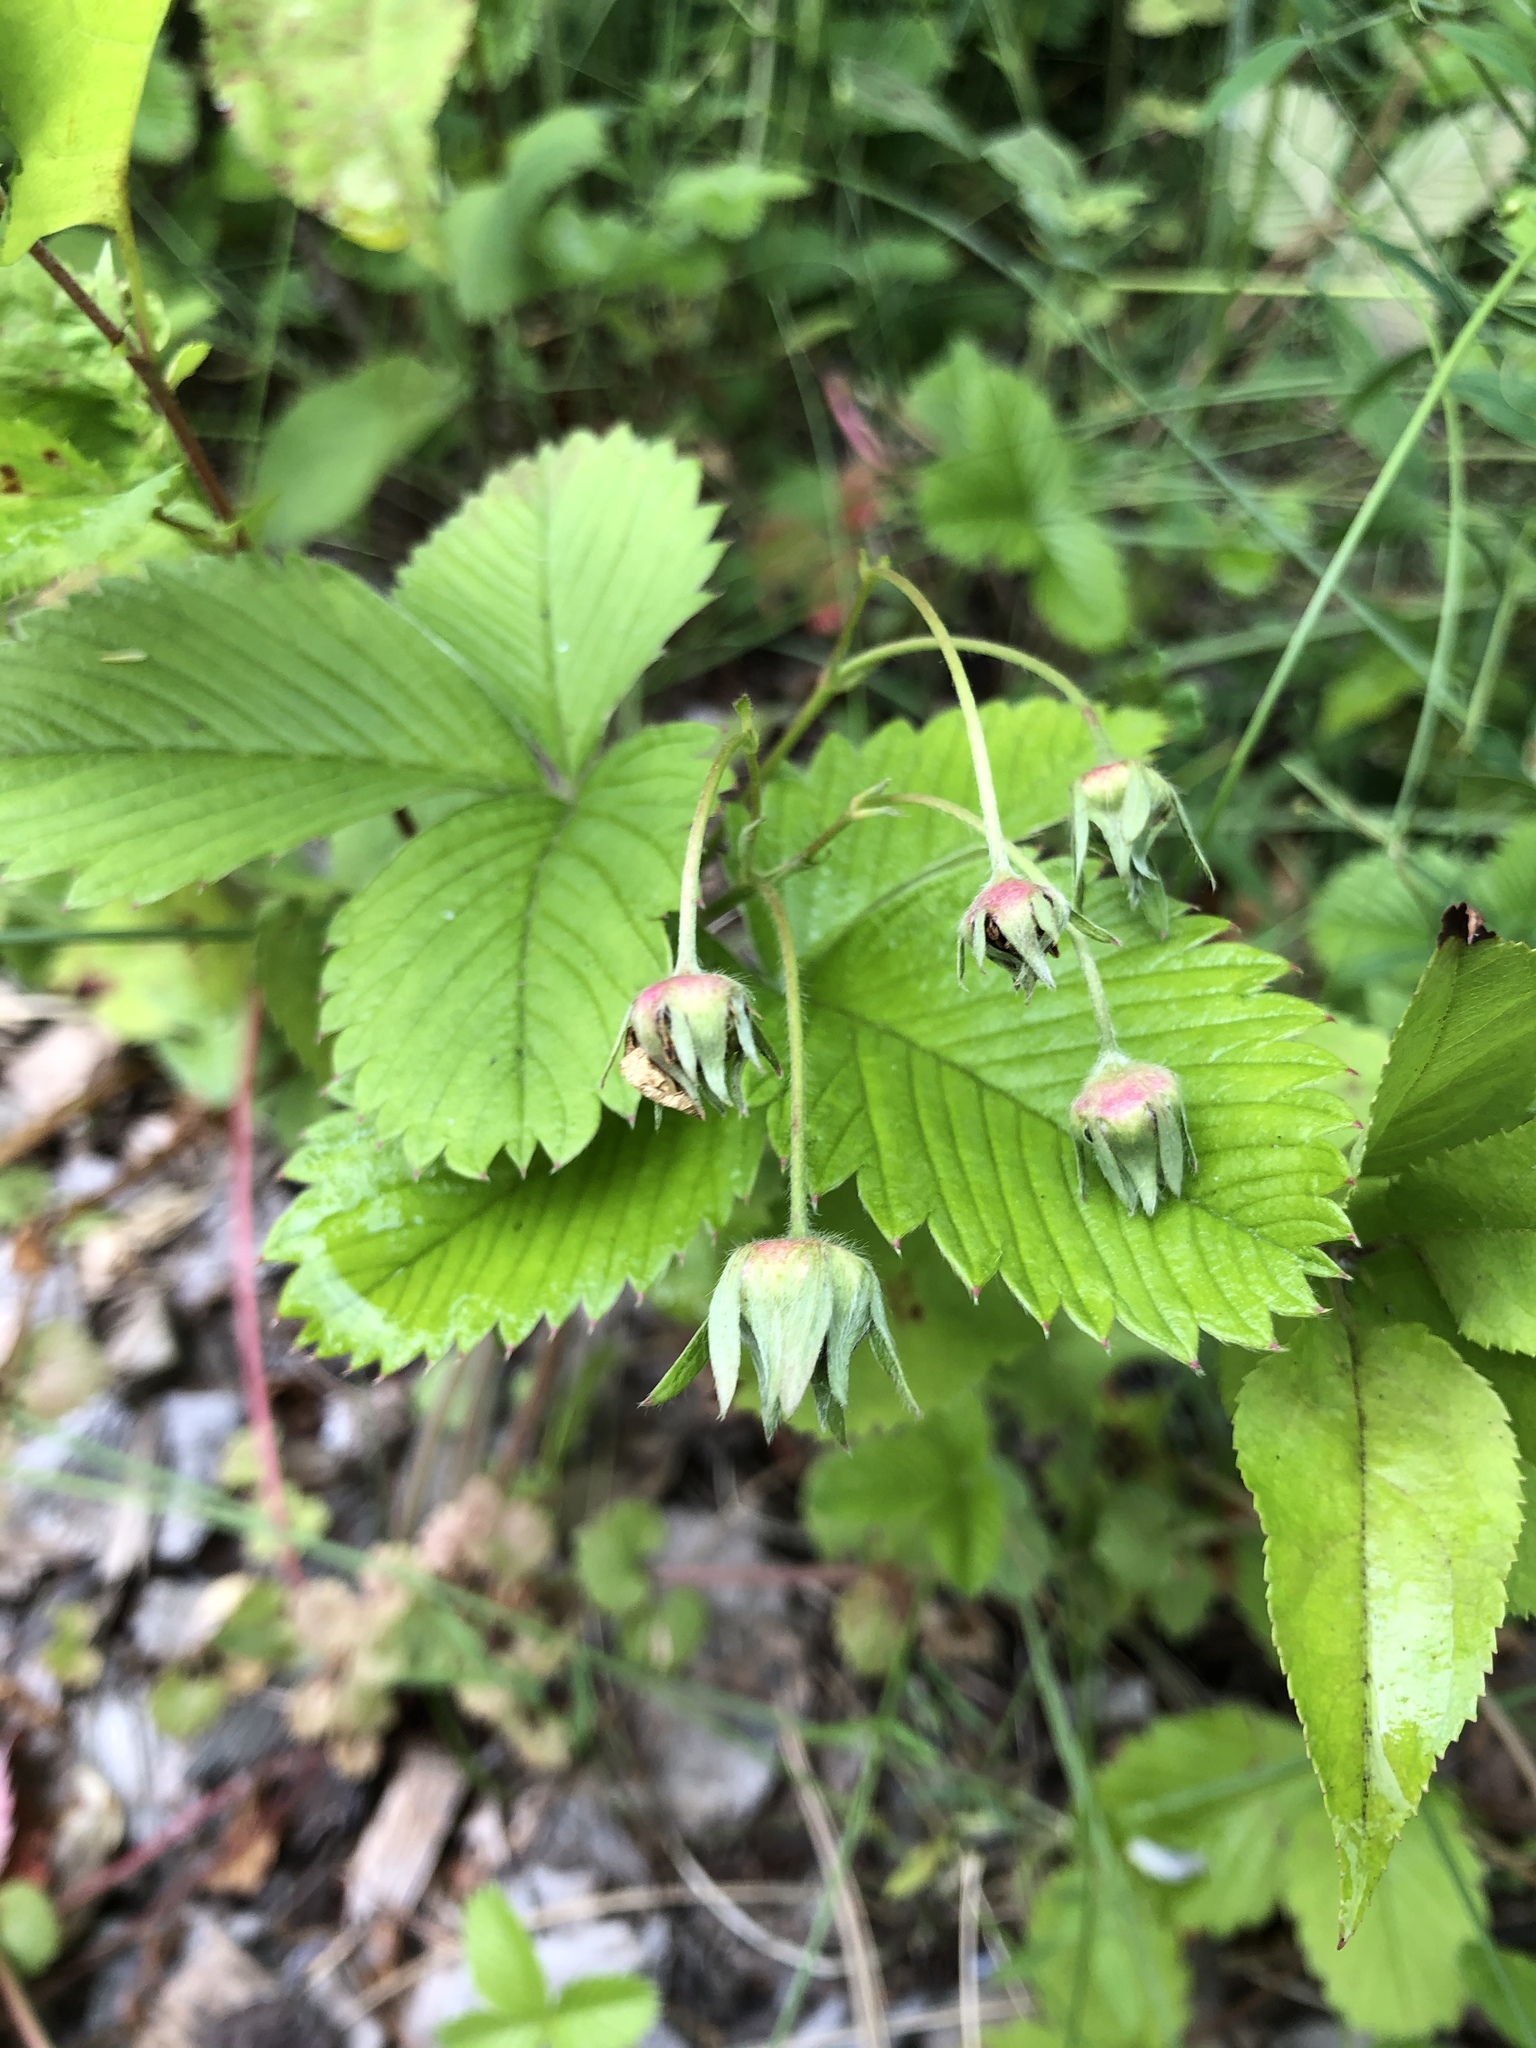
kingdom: Plantae
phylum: Tracheophyta
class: Magnoliopsida
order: Rosales
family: Rosaceae
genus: Fragaria
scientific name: Fragaria viridis
